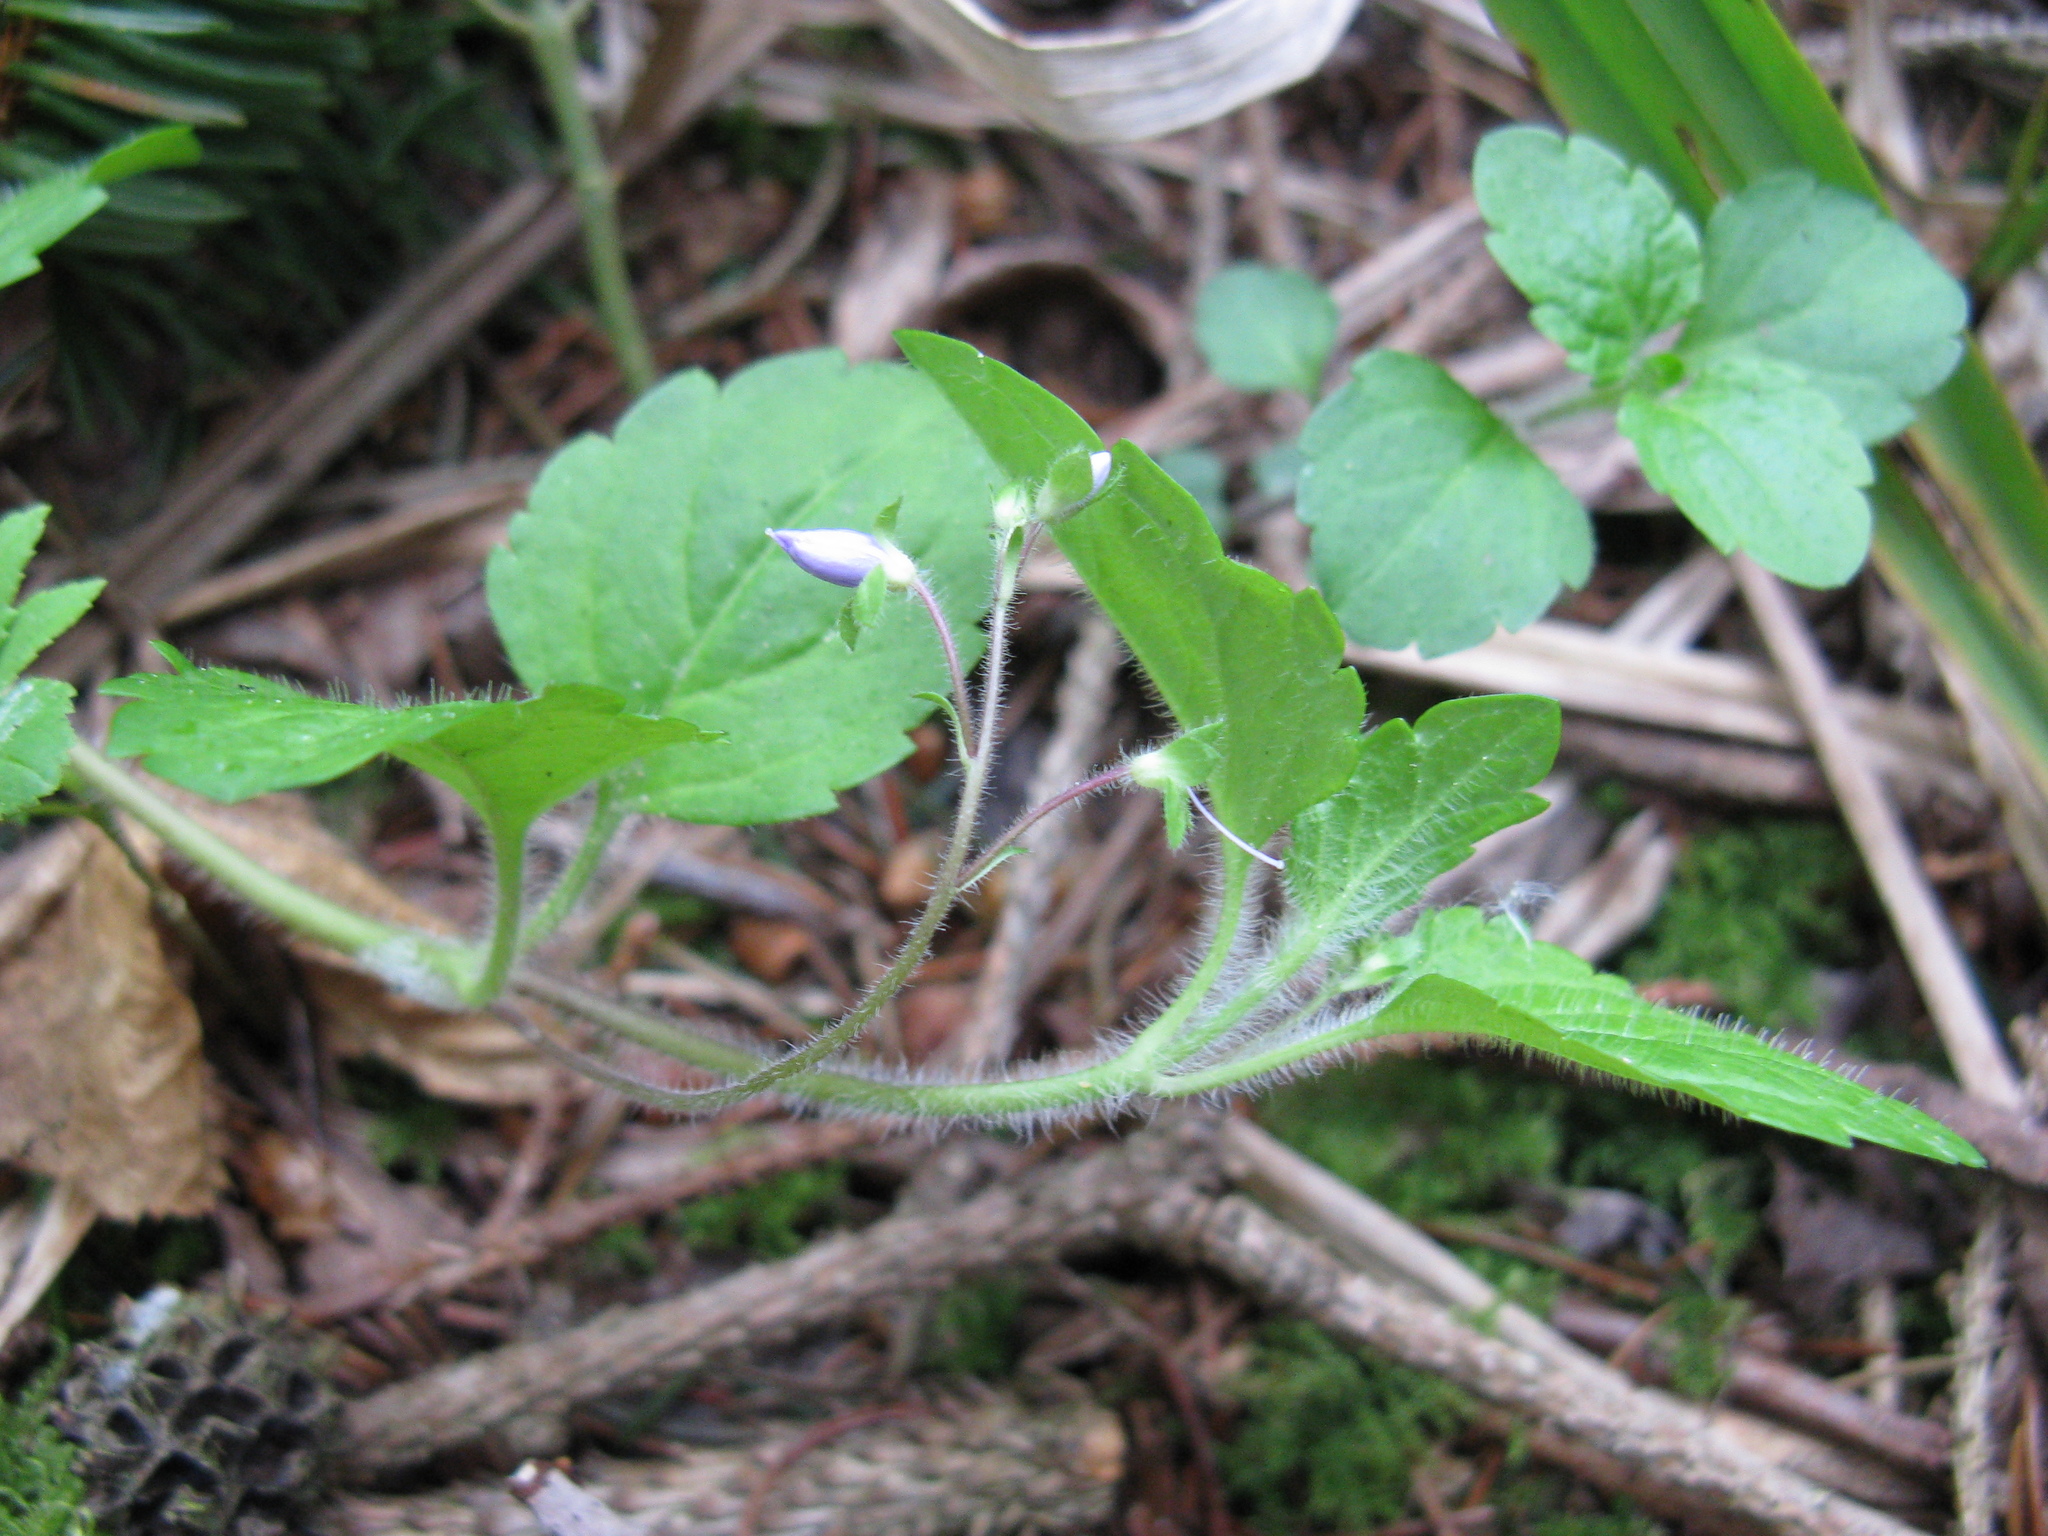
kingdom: Plantae
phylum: Tracheophyta
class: Magnoliopsida
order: Lamiales
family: Plantaginaceae
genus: Veronica
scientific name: Veronica montana
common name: Wood speedwell
